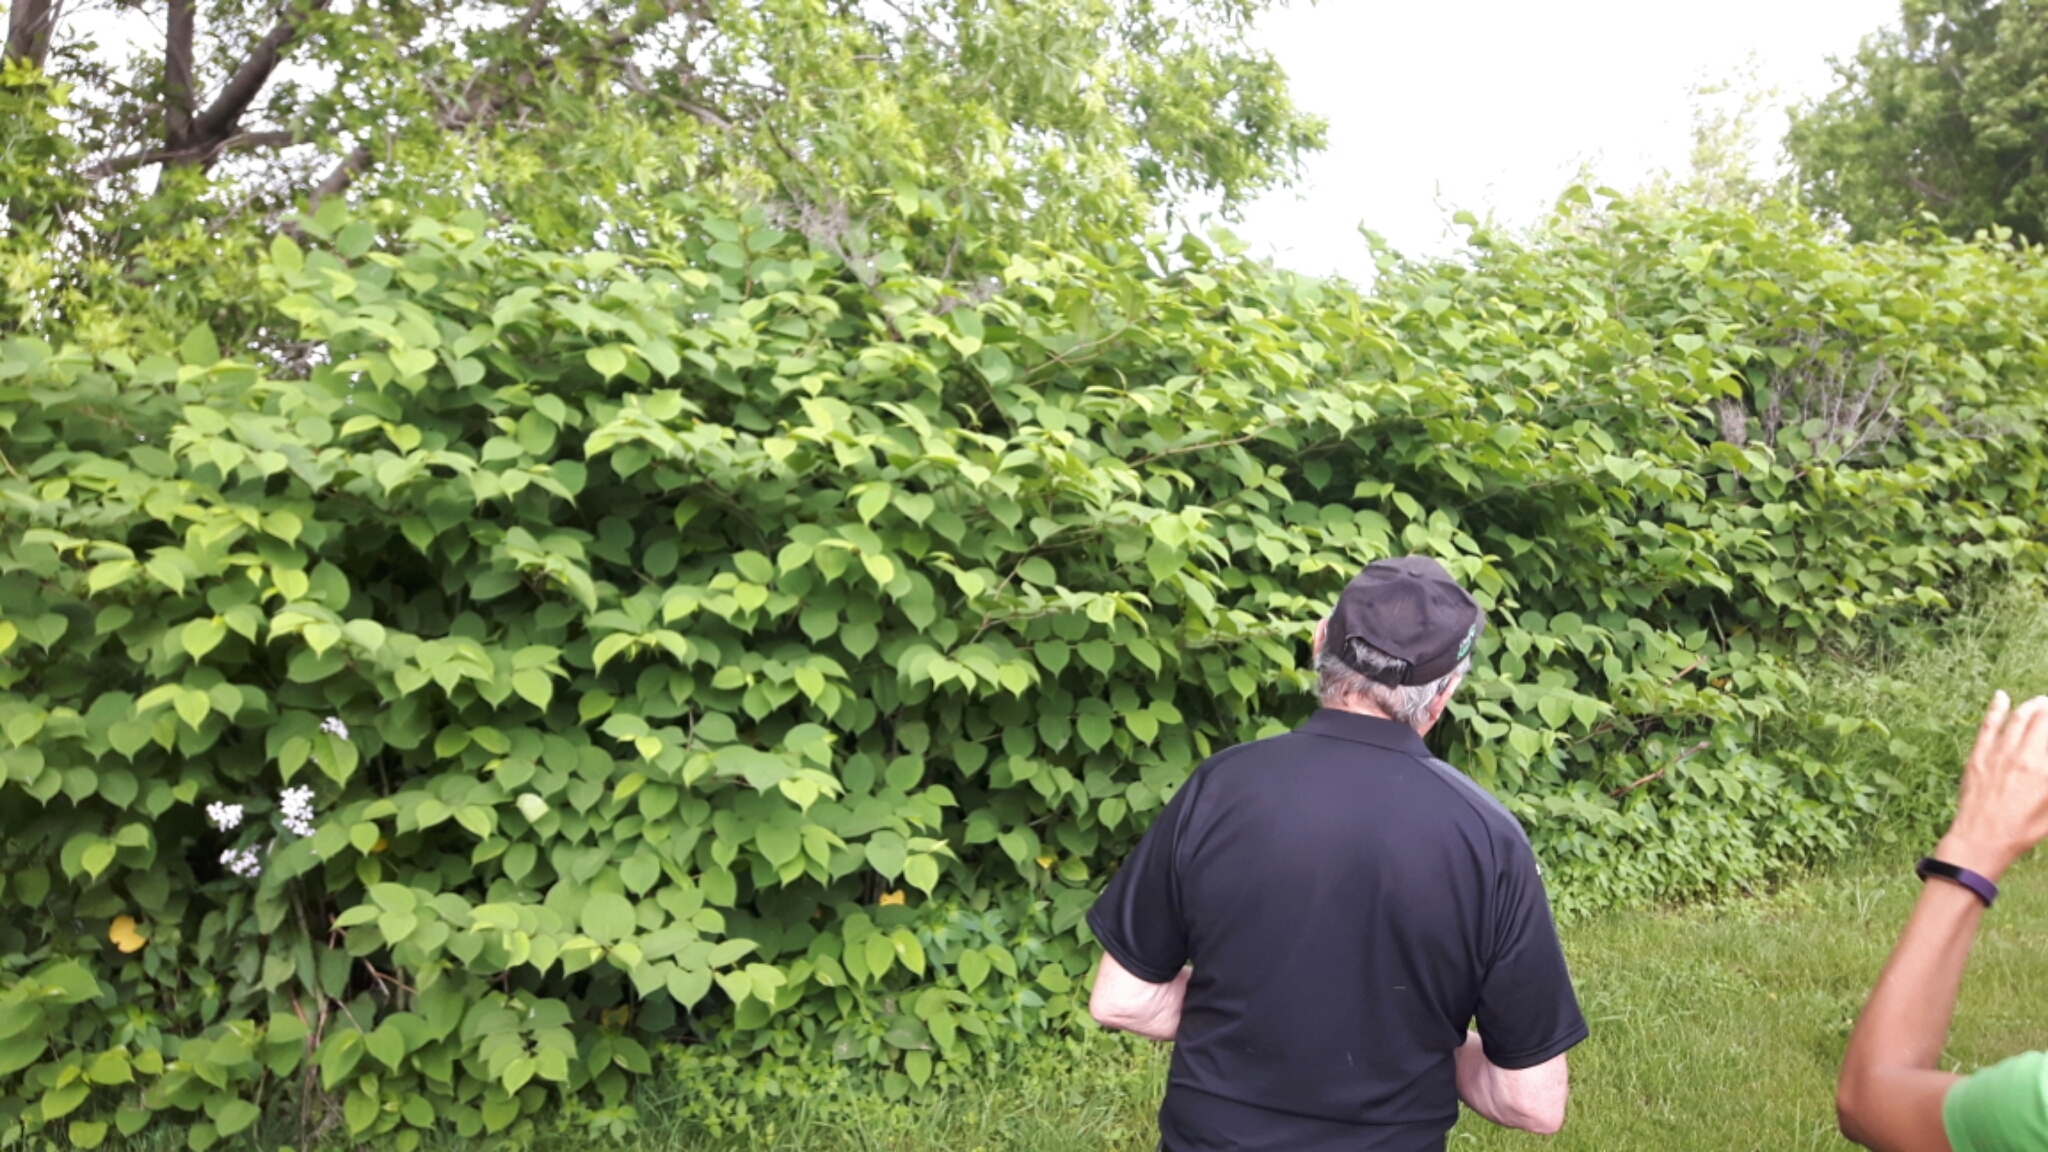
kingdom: Plantae
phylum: Tracheophyta
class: Magnoliopsida
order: Caryophyllales
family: Polygonaceae
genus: Reynoutria
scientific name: Reynoutria japonica
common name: Japanese knotweed
